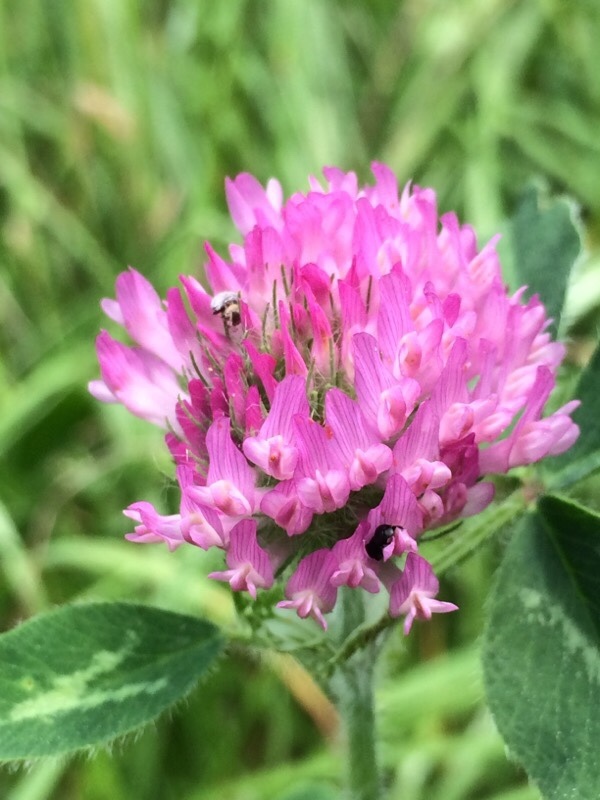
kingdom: Plantae
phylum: Tracheophyta
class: Magnoliopsida
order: Fabales
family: Fabaceae
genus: Trifolium
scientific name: Trifolium pratense
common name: Red clover
